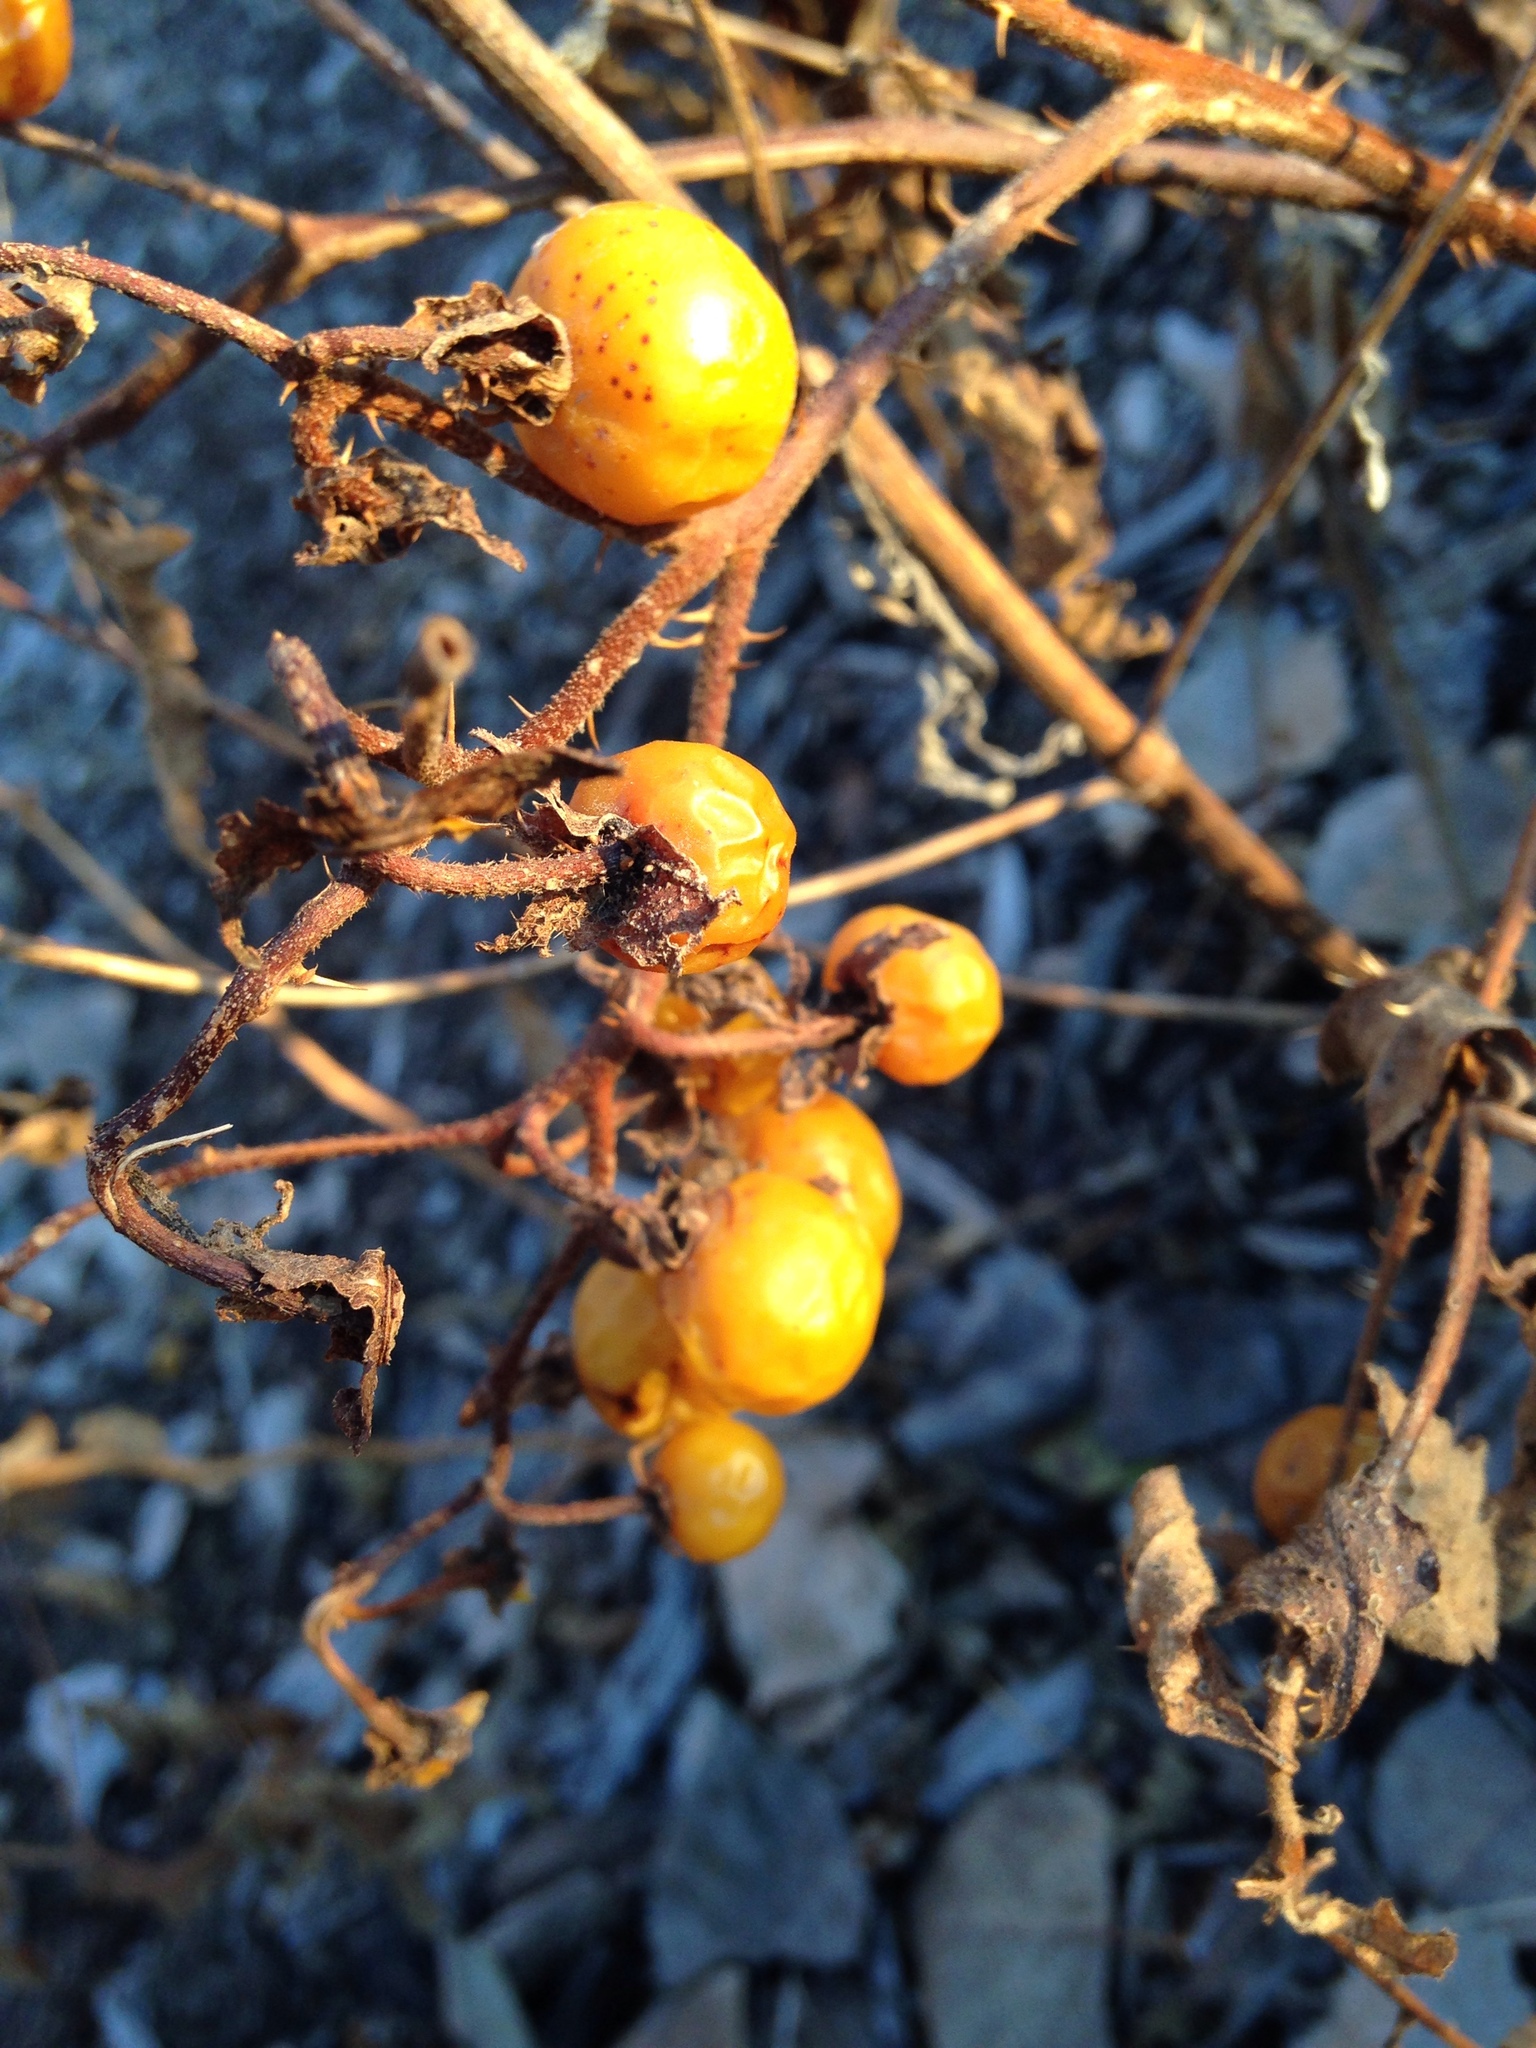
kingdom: Plantae
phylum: Tracheophyta
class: Magnoliopsida
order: Solanales
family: Solanaceae
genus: Solanum
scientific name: Solanum carolinense
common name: Horse-nettle
